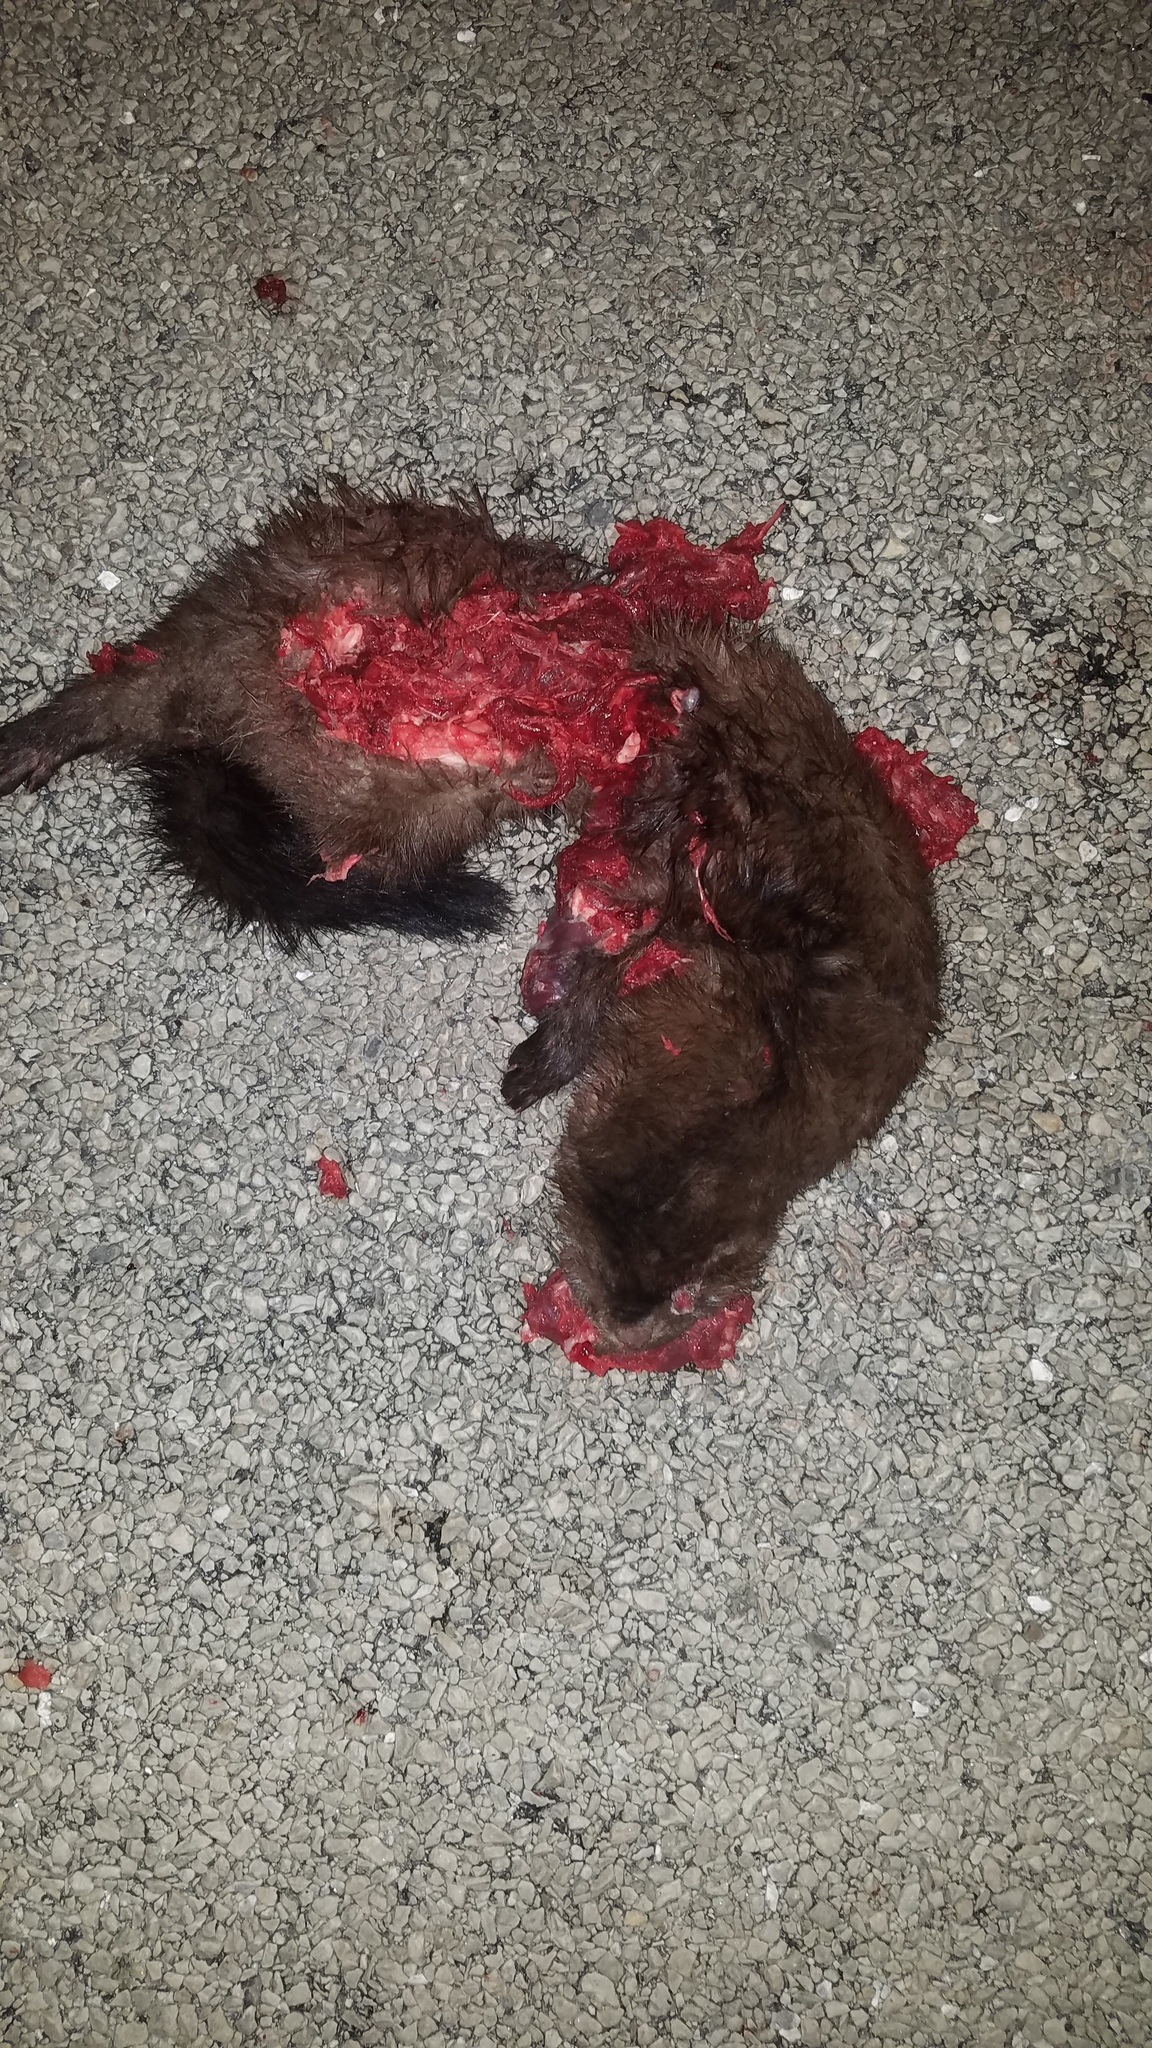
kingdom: Animalia
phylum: Chordata
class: Mammalia
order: Carnivora
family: Mustelidae
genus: Mustela
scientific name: Mustela
